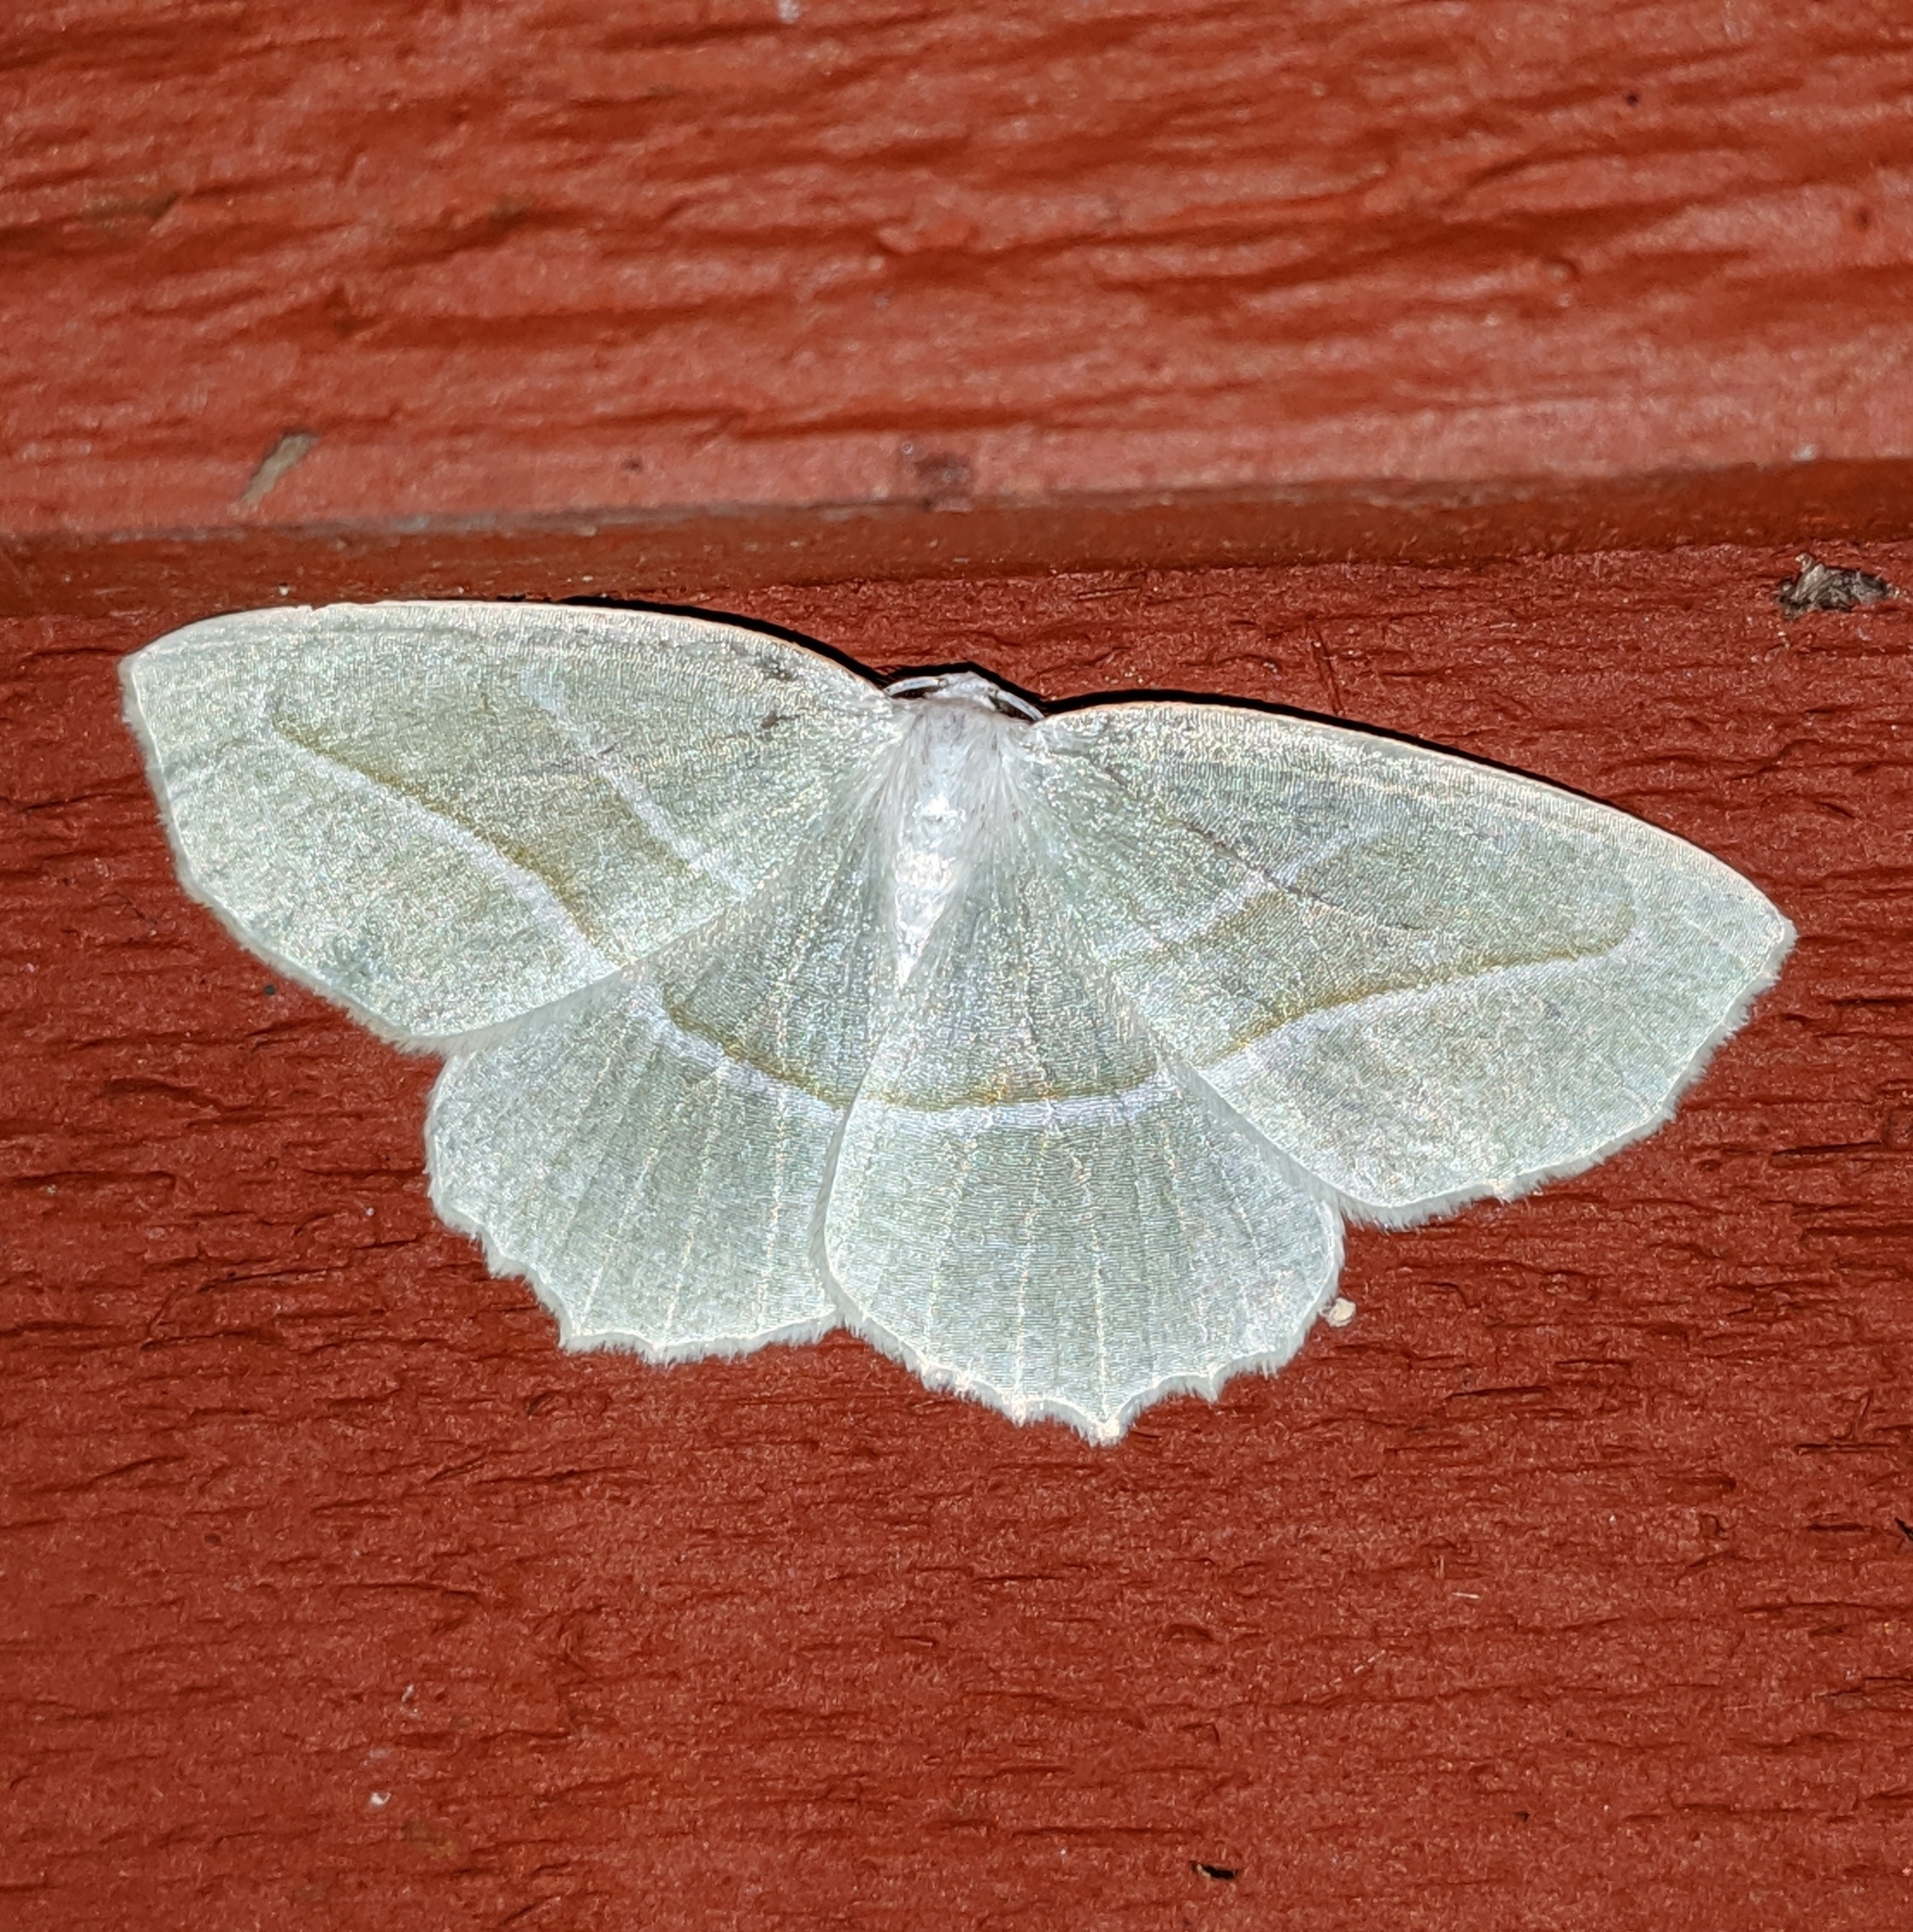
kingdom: Animalia
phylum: Arthropoda
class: Insecta
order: Lepidoptera
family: Geometridae
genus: Campaea
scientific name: Campaea perlata
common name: Fringed looper
